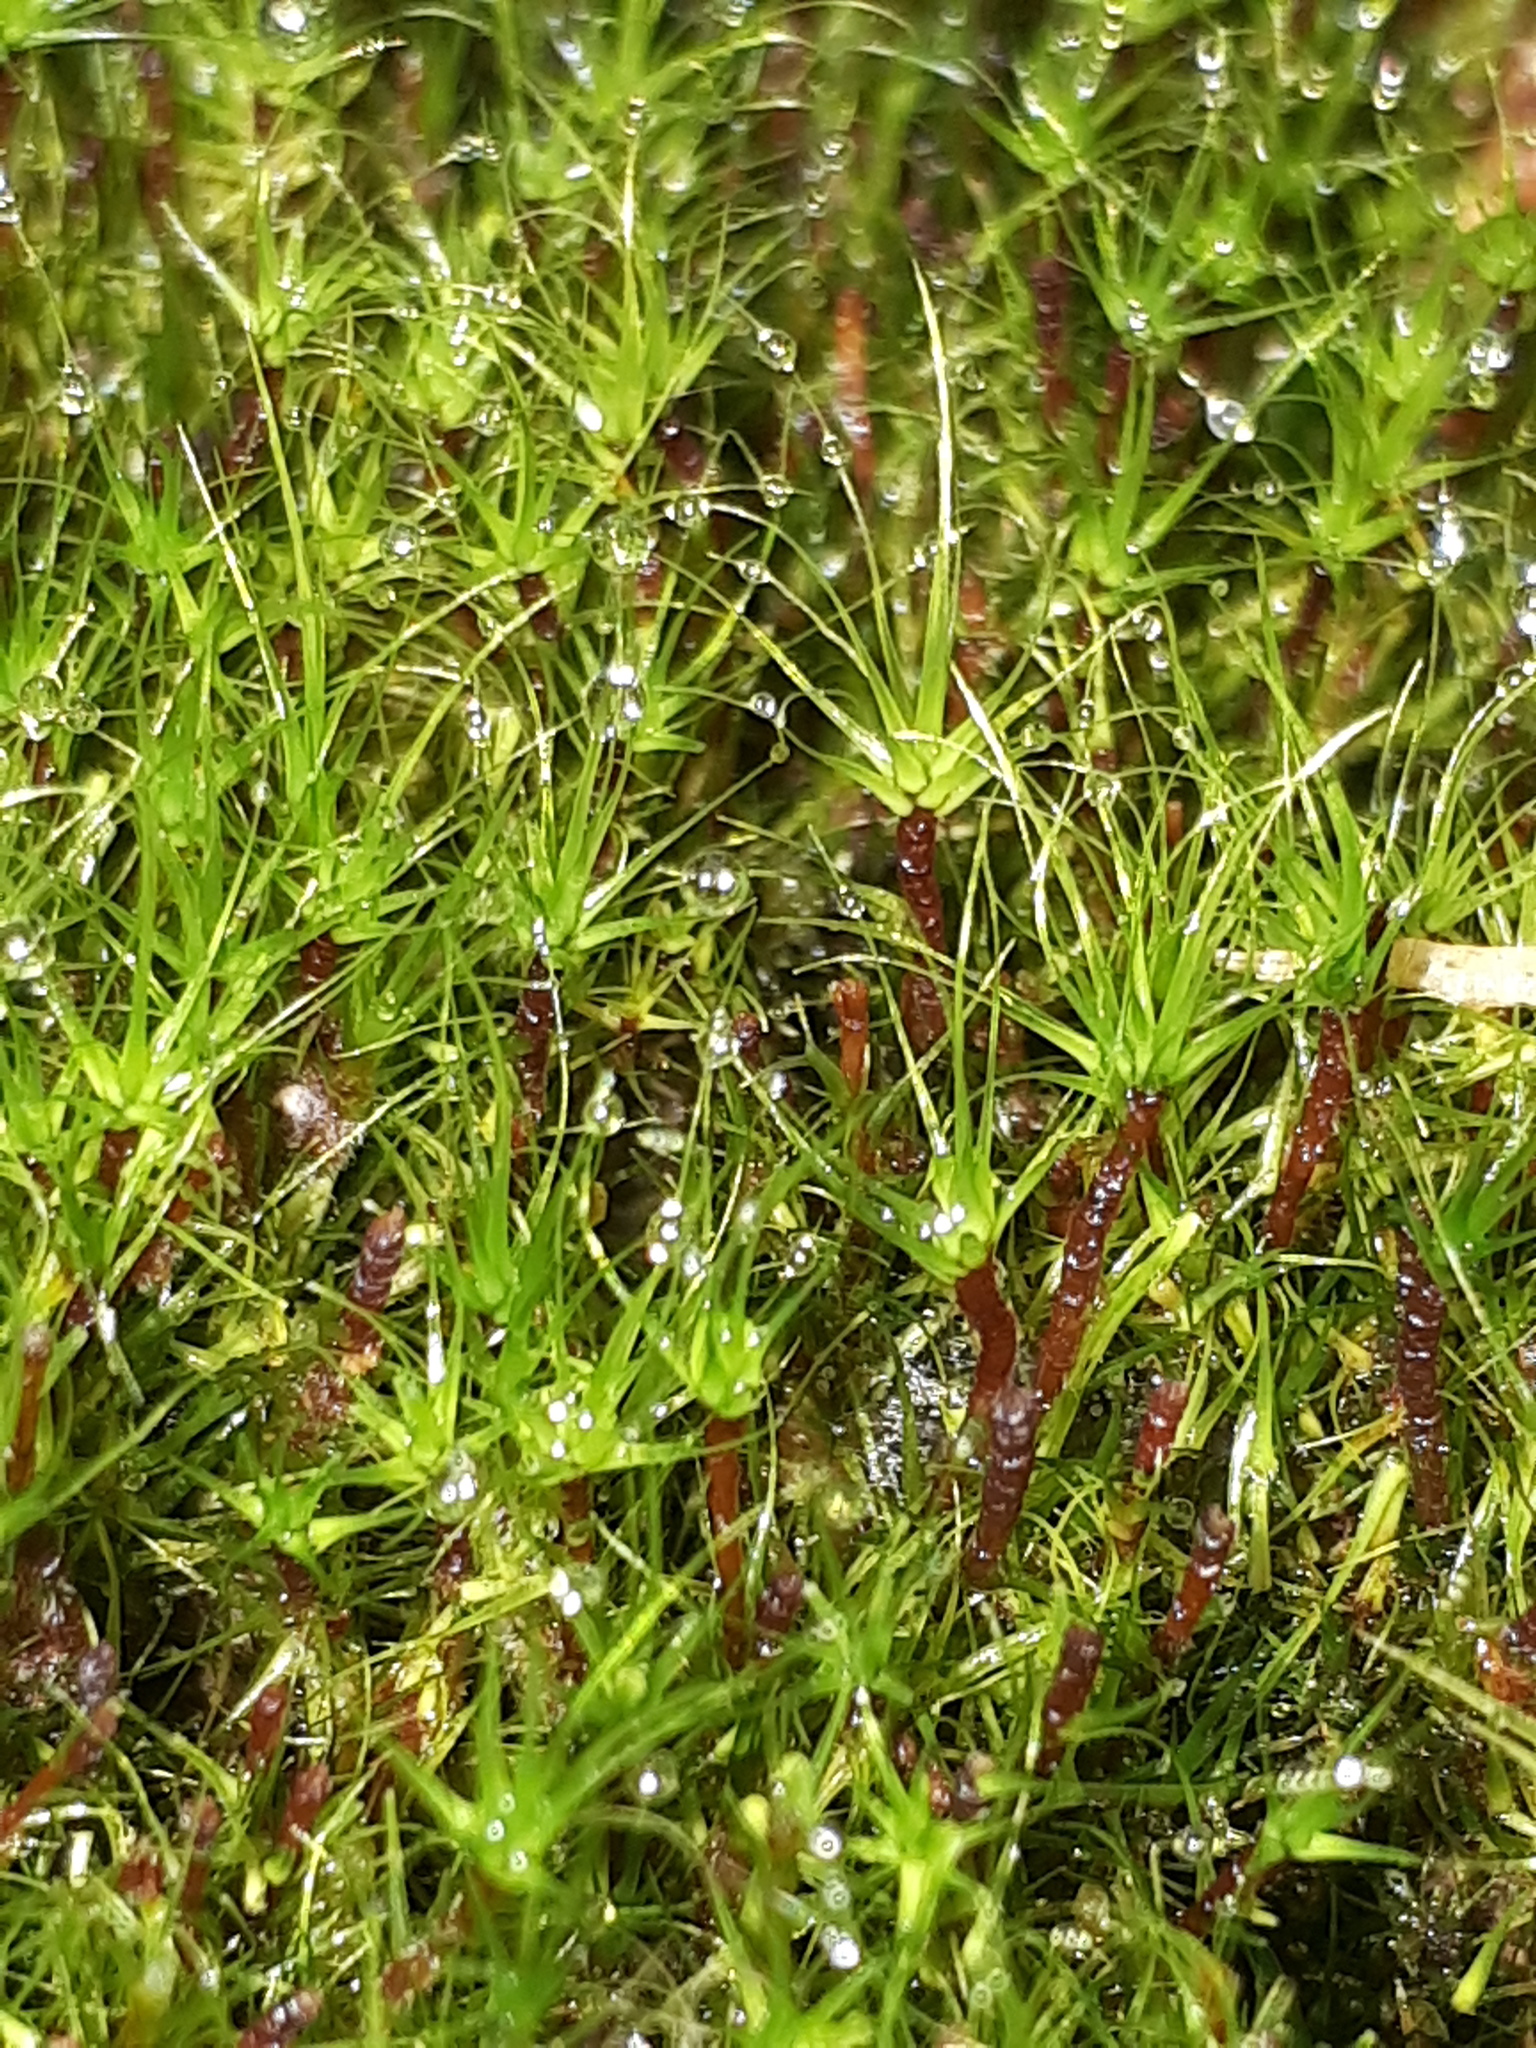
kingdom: Plantae
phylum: Bryophyta
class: Bryopsida
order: Dicranales
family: Leucobryaceae
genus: Dicranodontium
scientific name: Dicranodontium denudatum
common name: Beaked bow moss
